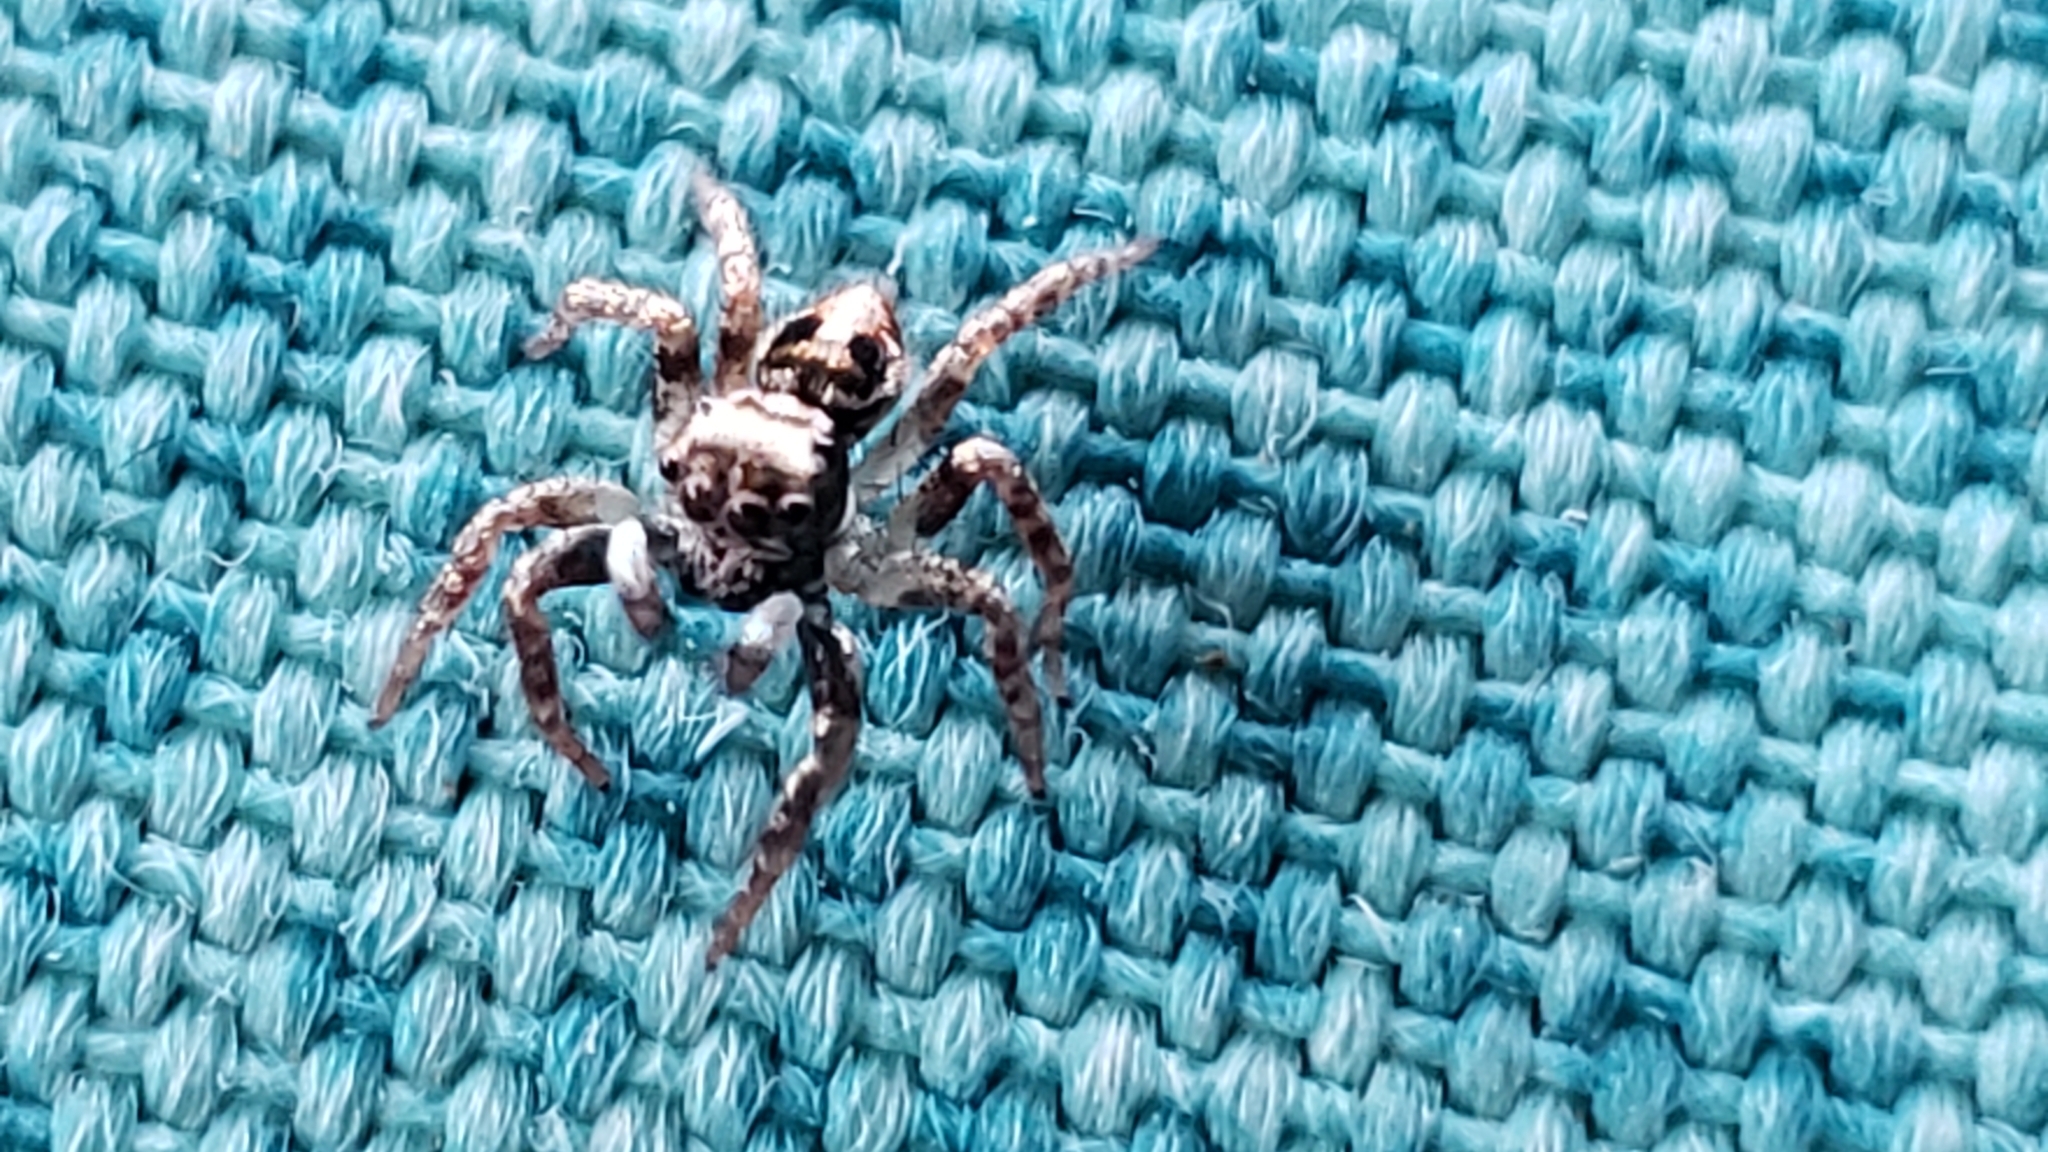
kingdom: Animalia
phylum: Arthropoda
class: Arachnida
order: Araneae
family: Salticidae
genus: Anasaitis
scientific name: Anasaitis canosa
